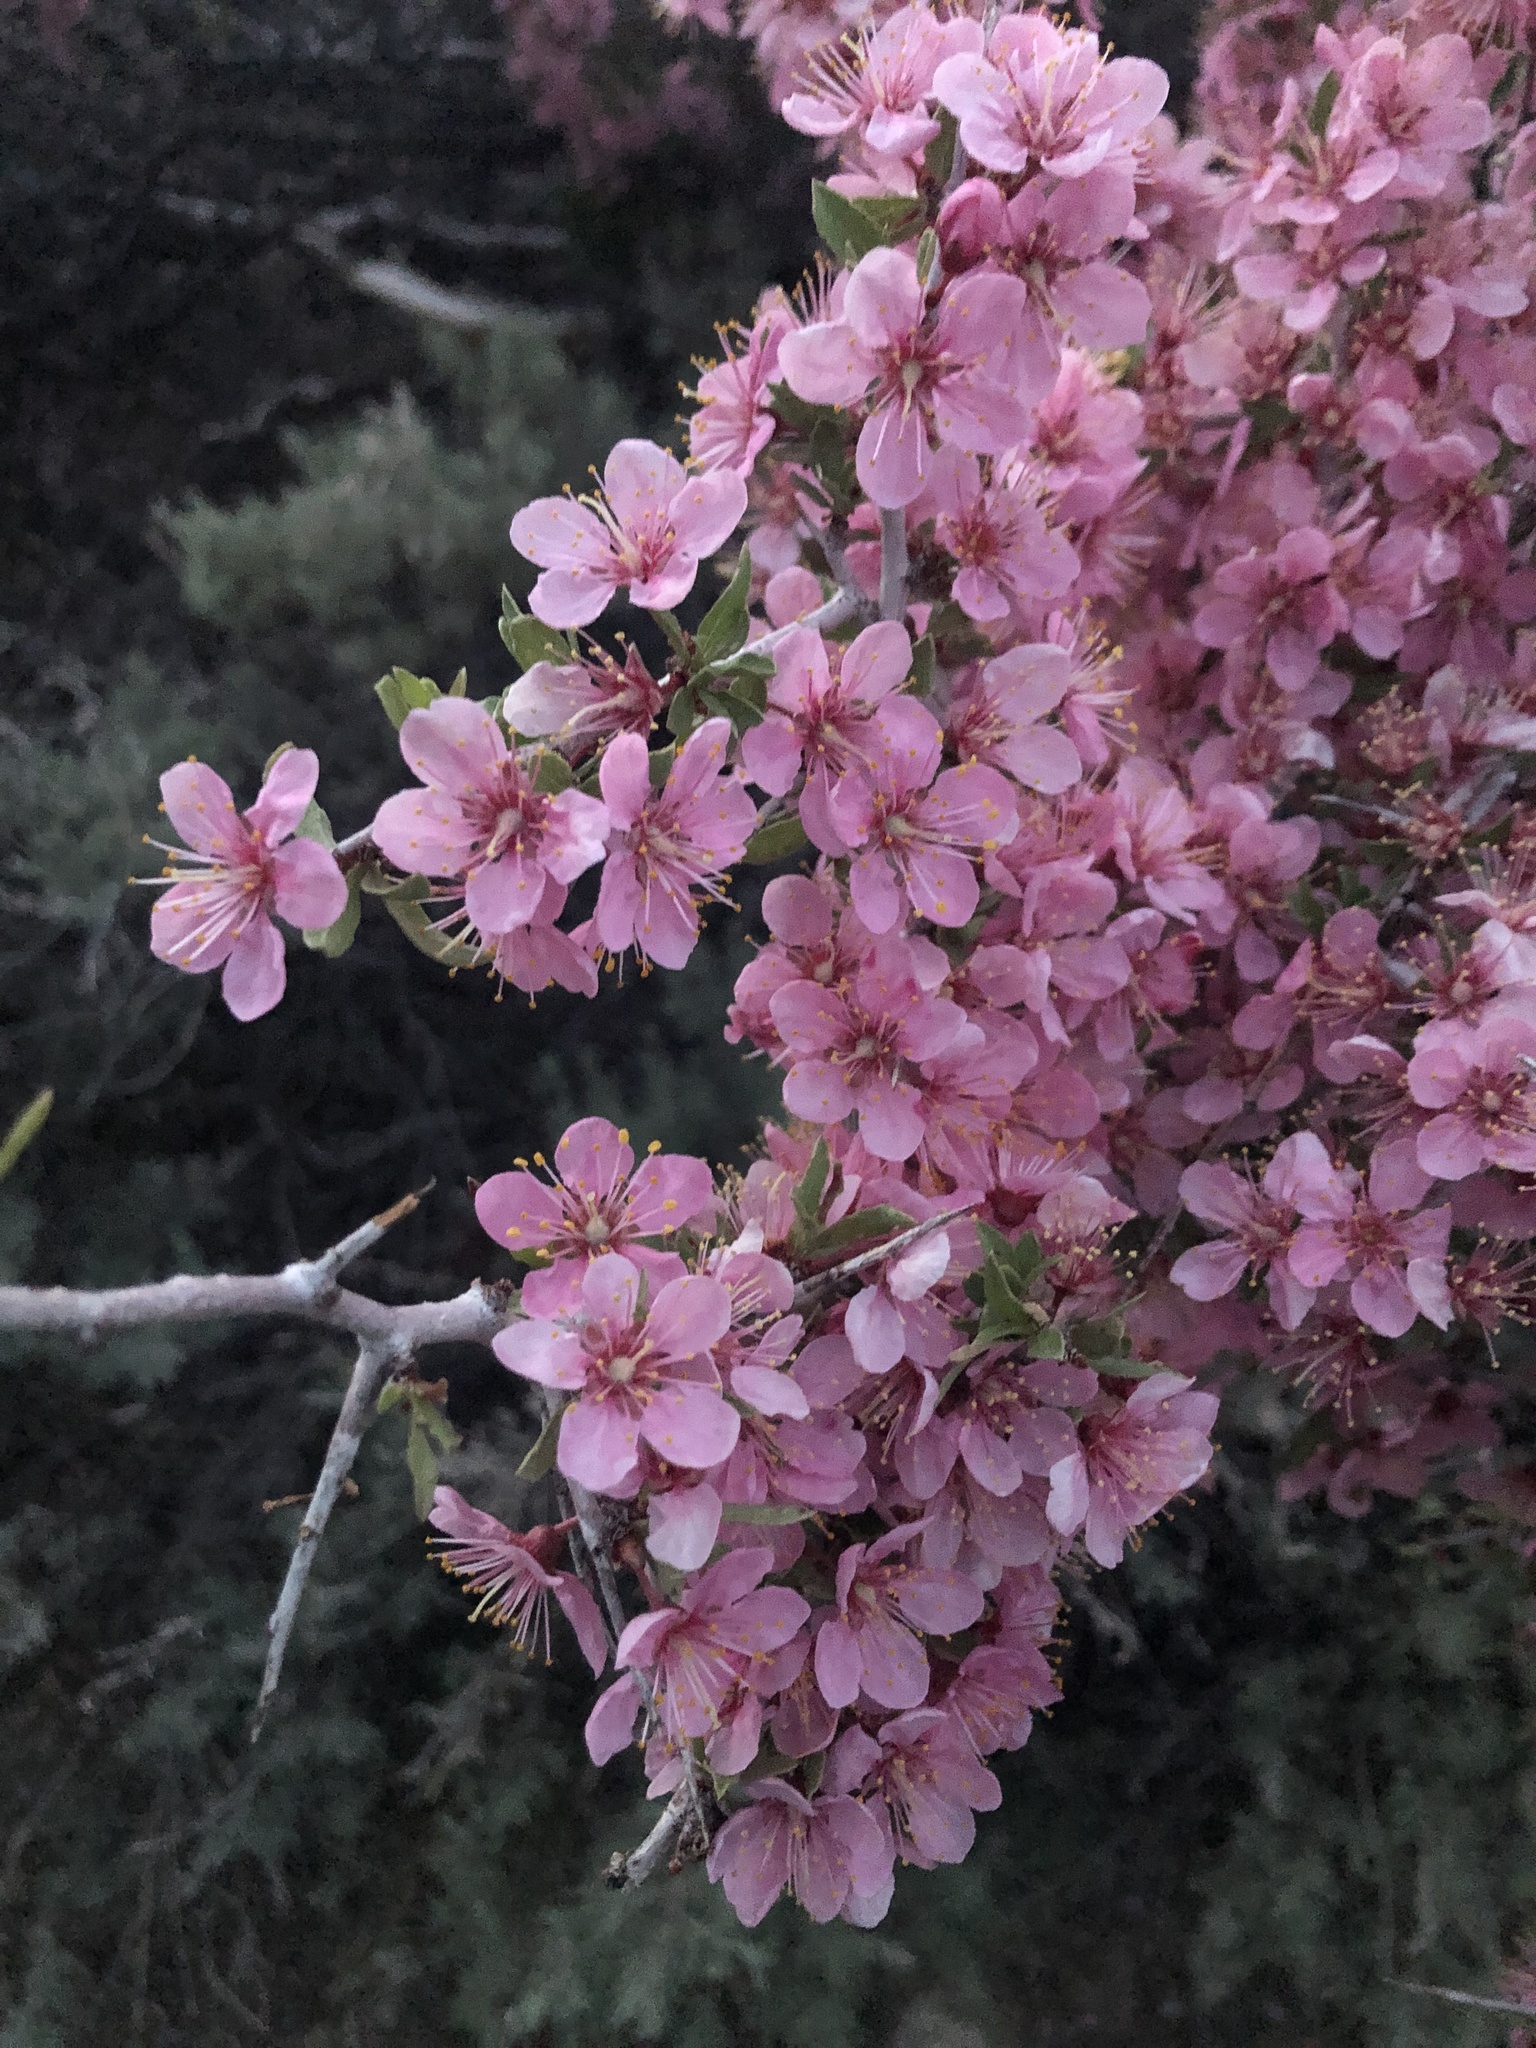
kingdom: Plantae
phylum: Tracheophyta
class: Magnoliopsida
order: Rosales
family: Rosaceae
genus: Prunus
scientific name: Prunus andersonii
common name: Desert peach
